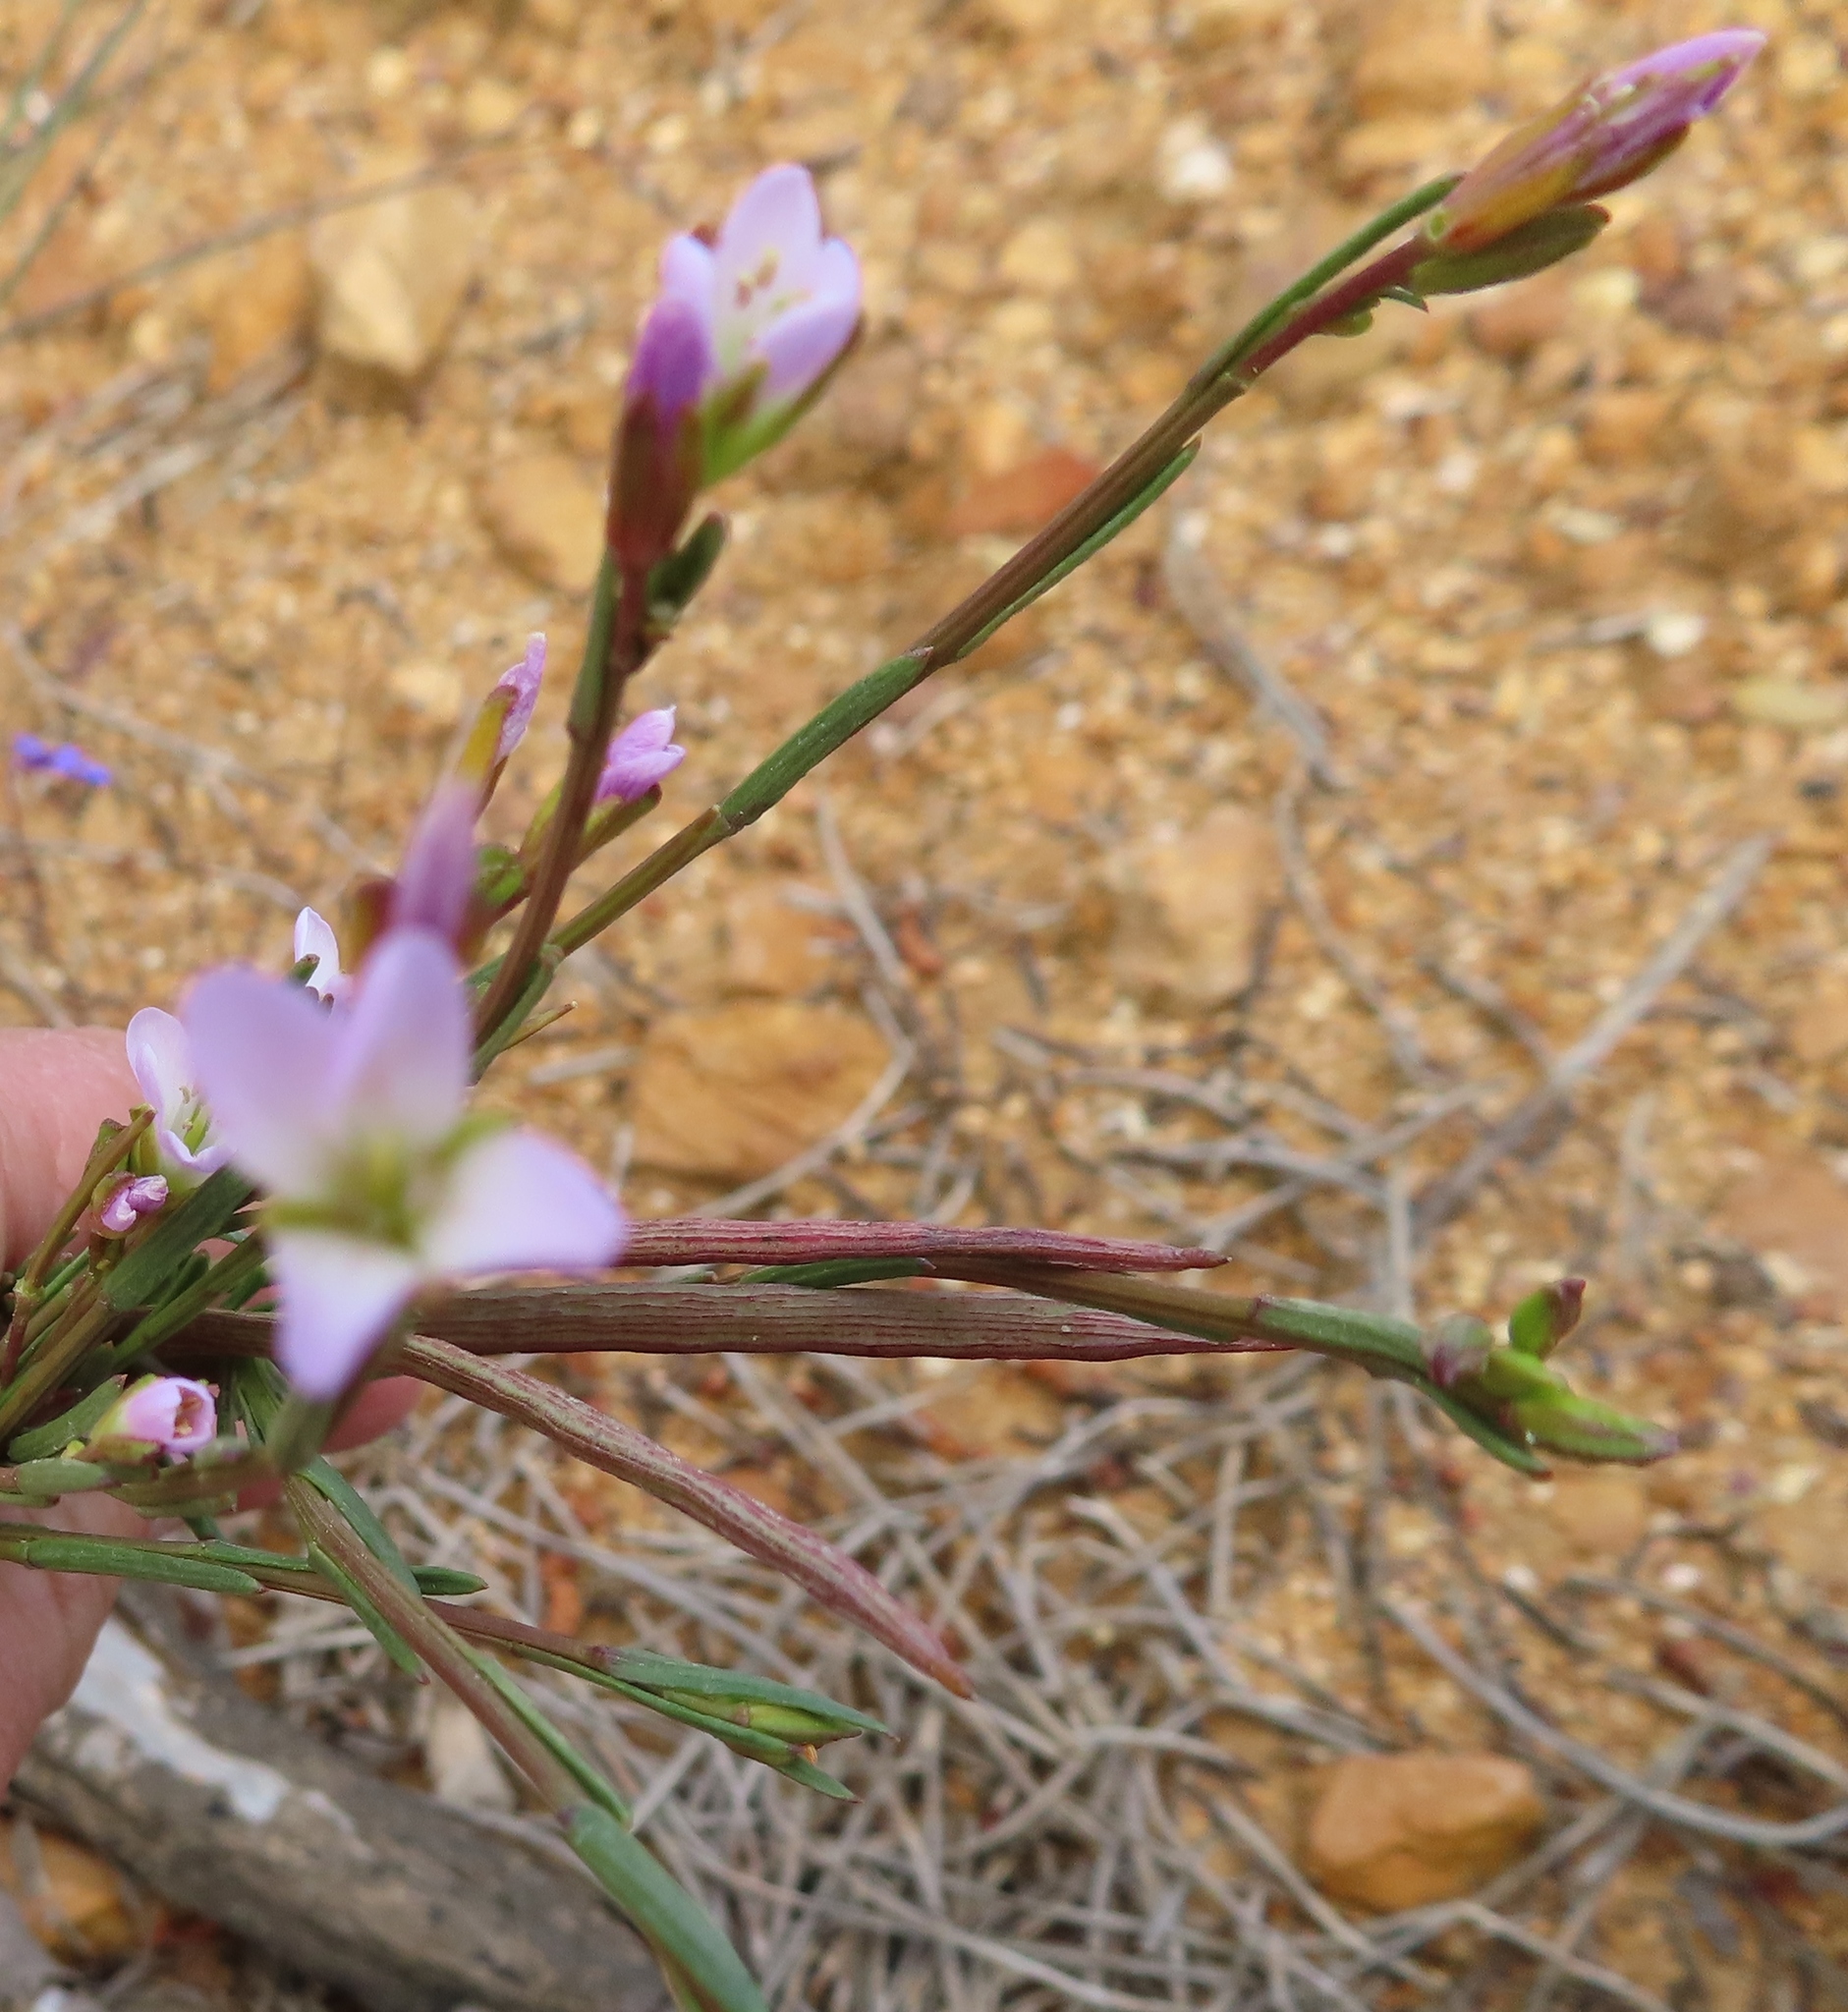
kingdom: Plantae
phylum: Tracheophyta
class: Magnoliopsida
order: Brassicales
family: Brassicaceae
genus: Heliophila
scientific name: Heliophila scoparia
